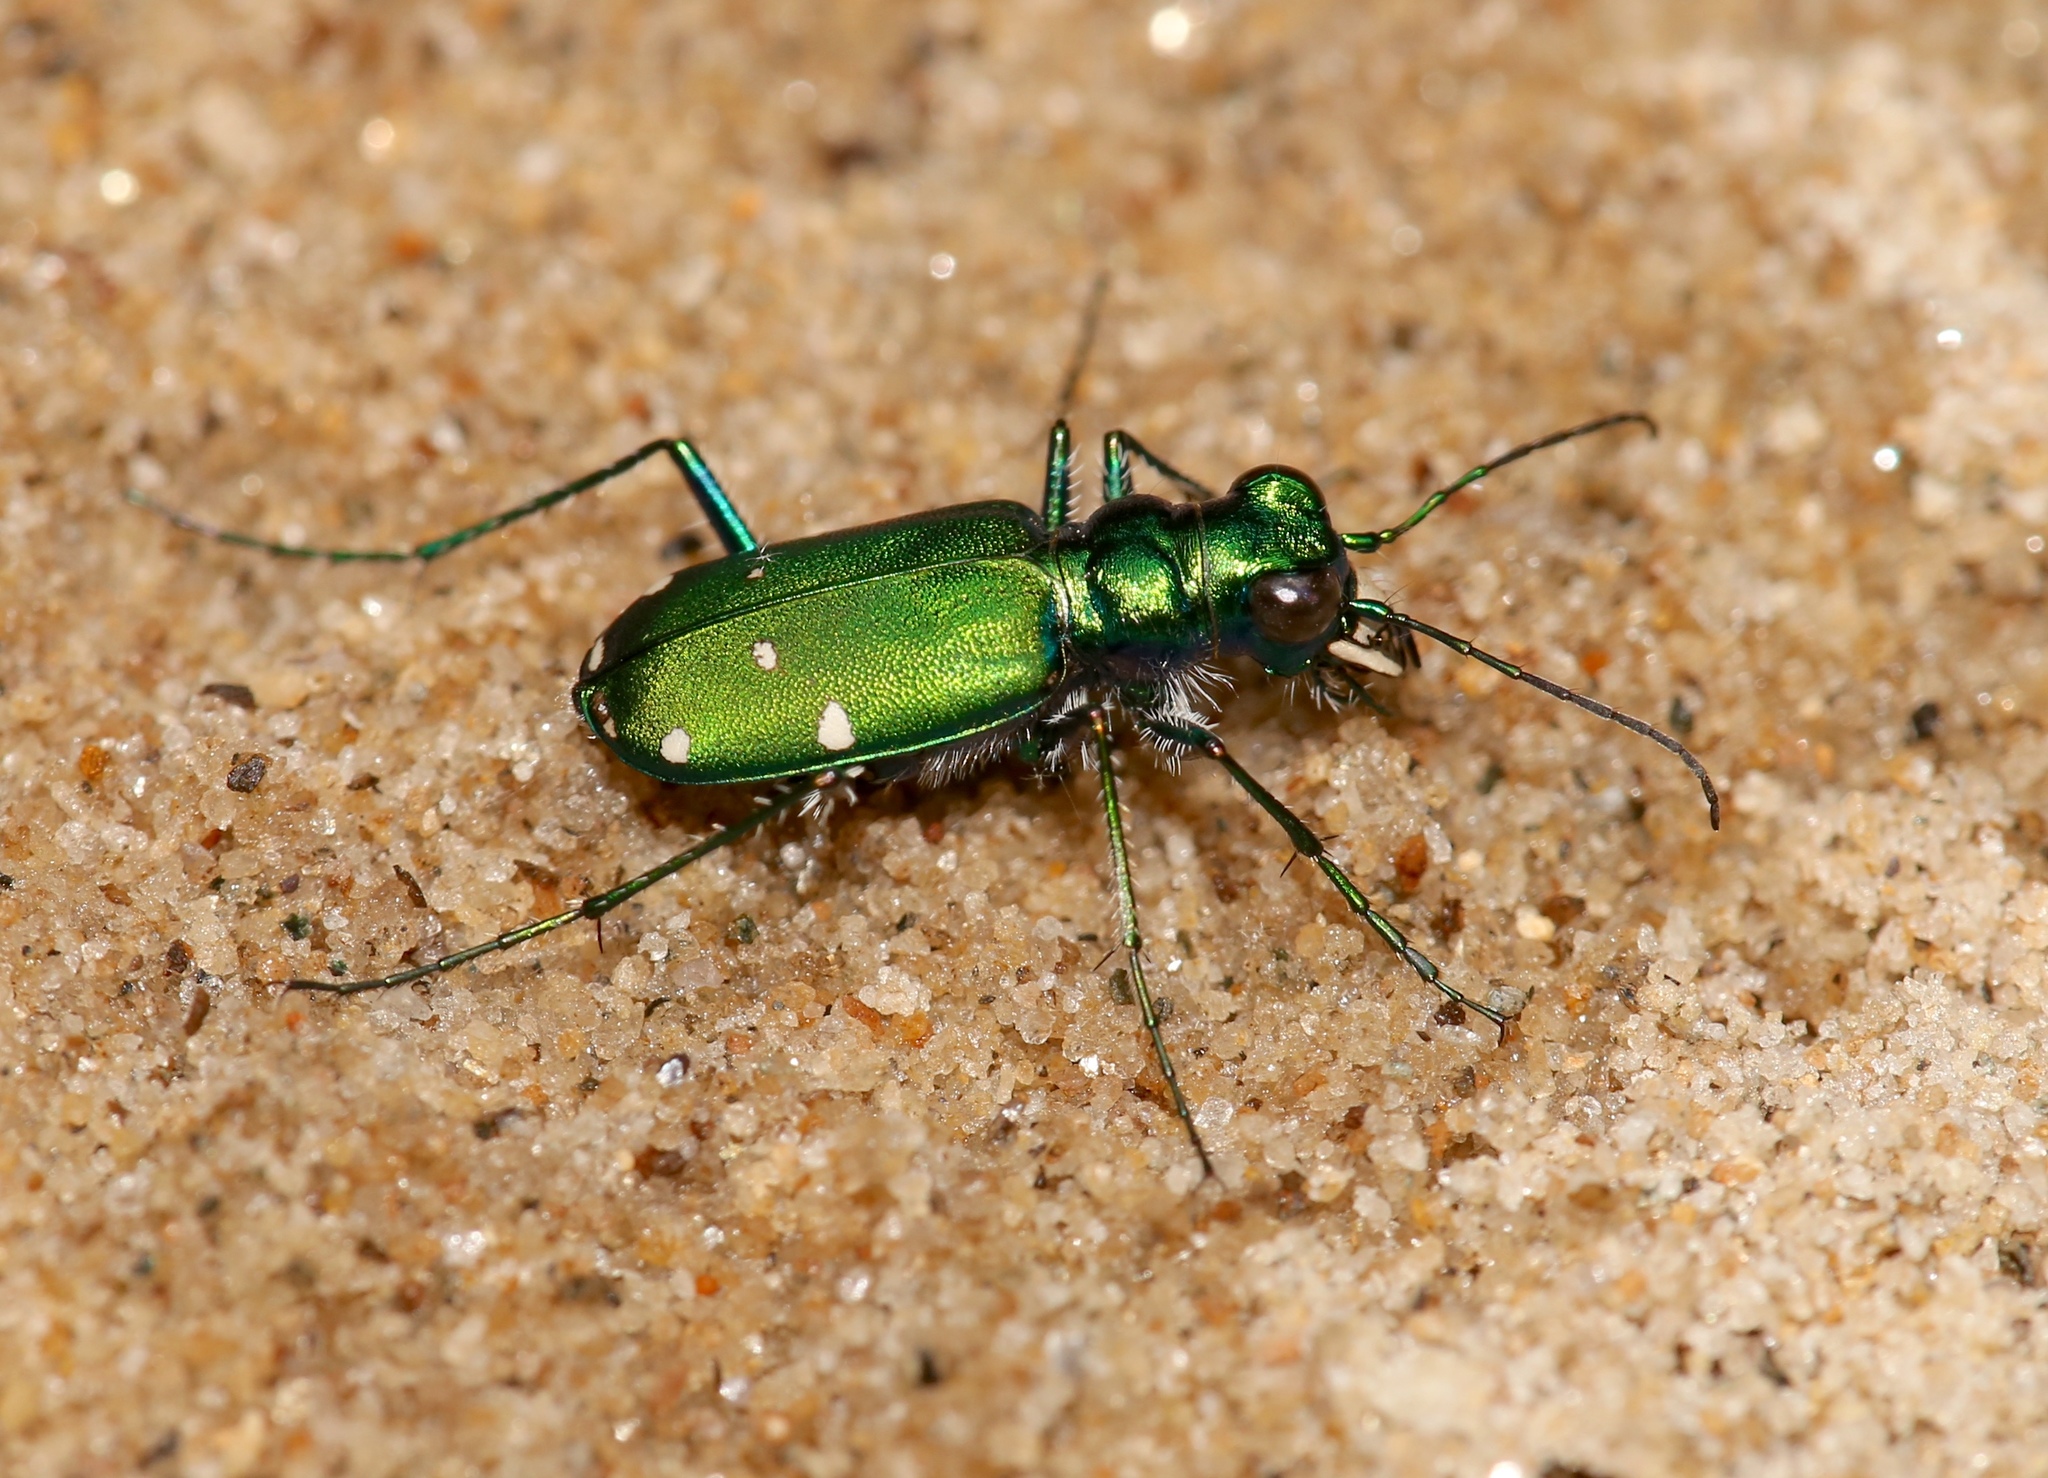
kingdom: Animalia
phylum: Arthropoda
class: Insecta
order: Coleoptera
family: Carabidae
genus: Cicindela
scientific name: Cicindela sexguttata
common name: Six-spotted tiger beetle
